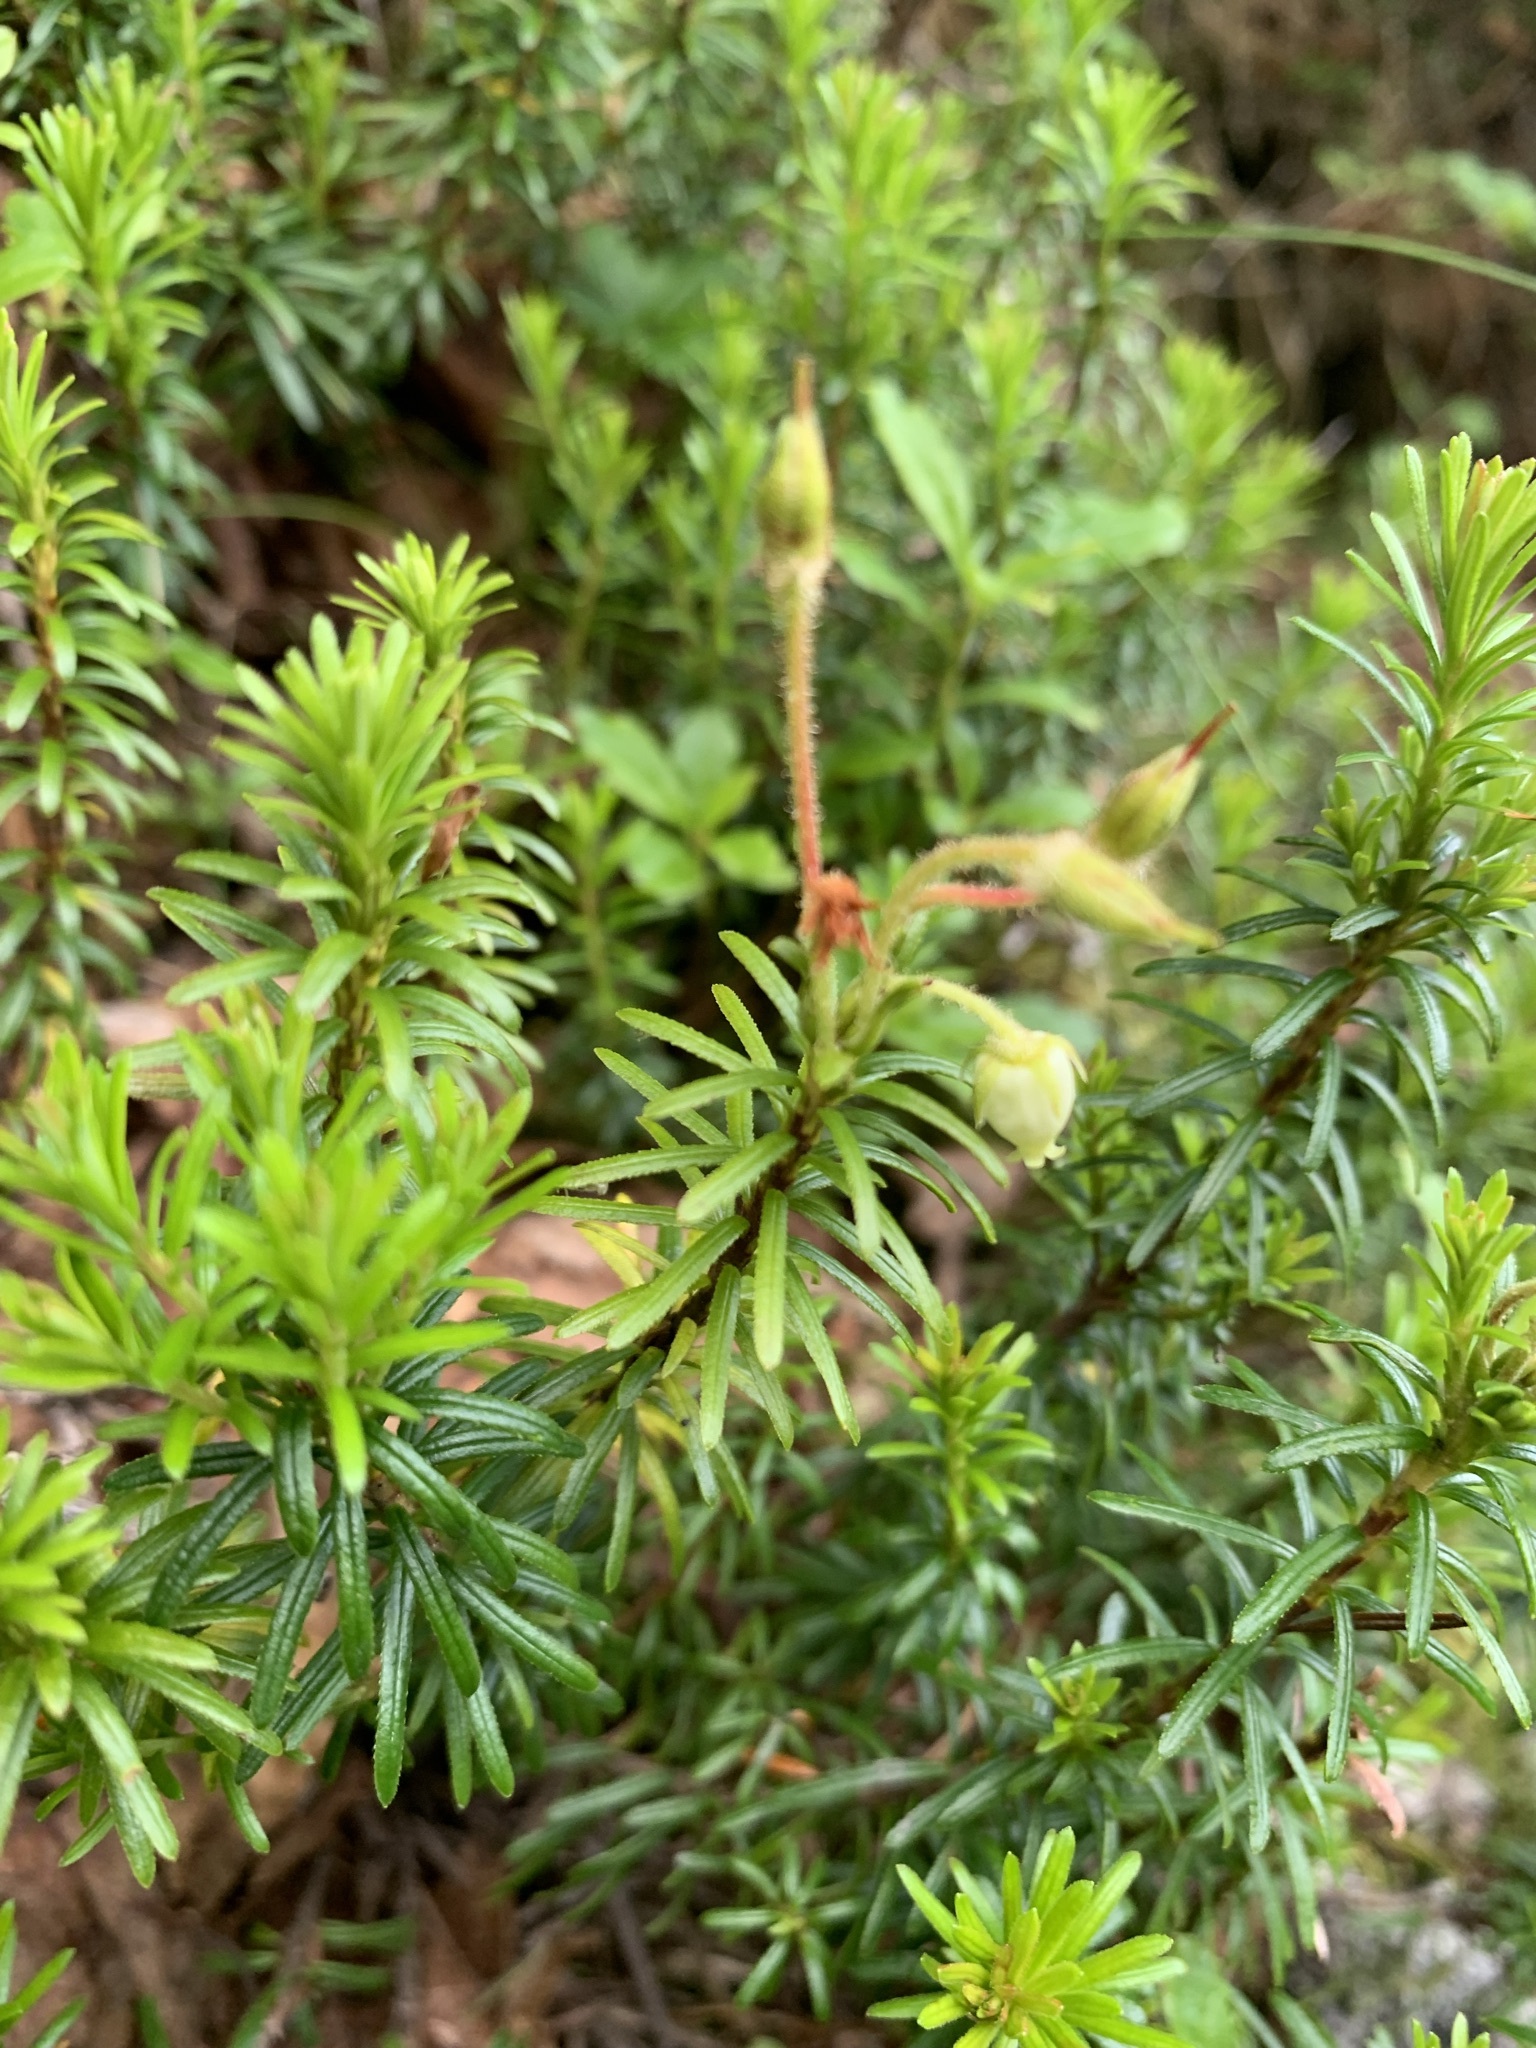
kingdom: Plantae
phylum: Tracheophyta
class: Magnoliopsida
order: Ericales
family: Ericaceae
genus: Phyllodoce
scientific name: Phyllodoce aleutica
